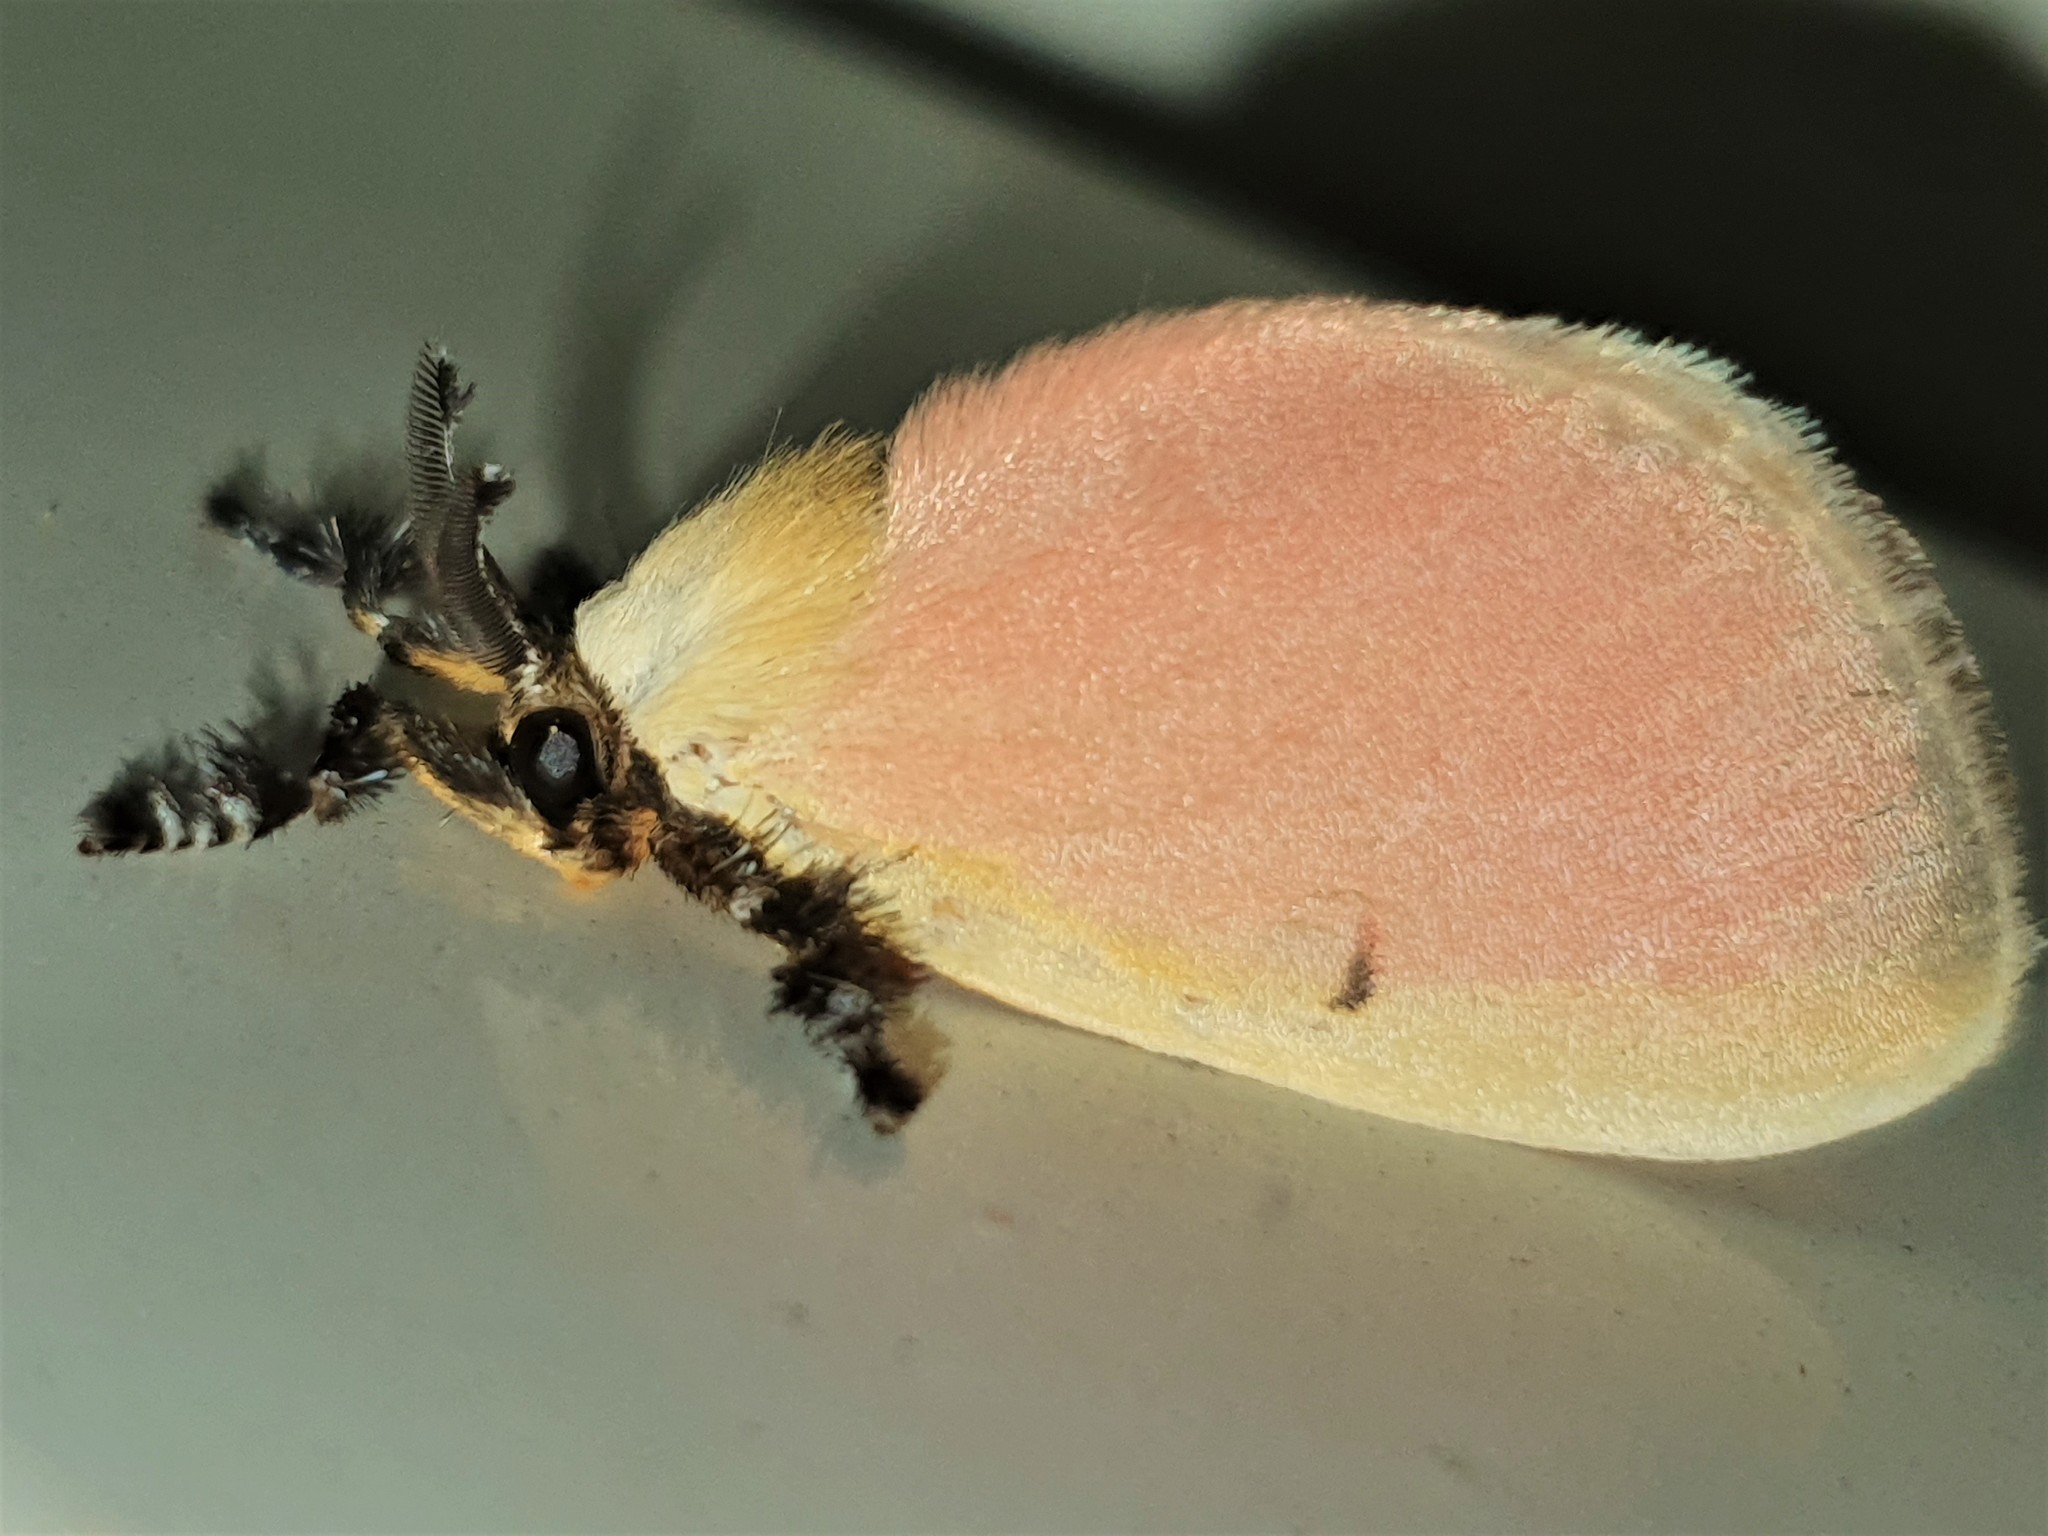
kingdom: Animalia
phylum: Arthropoda
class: Insecta
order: Lepidoptera
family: Dalceridae
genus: Dalcera
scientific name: Dalcera abrasa
